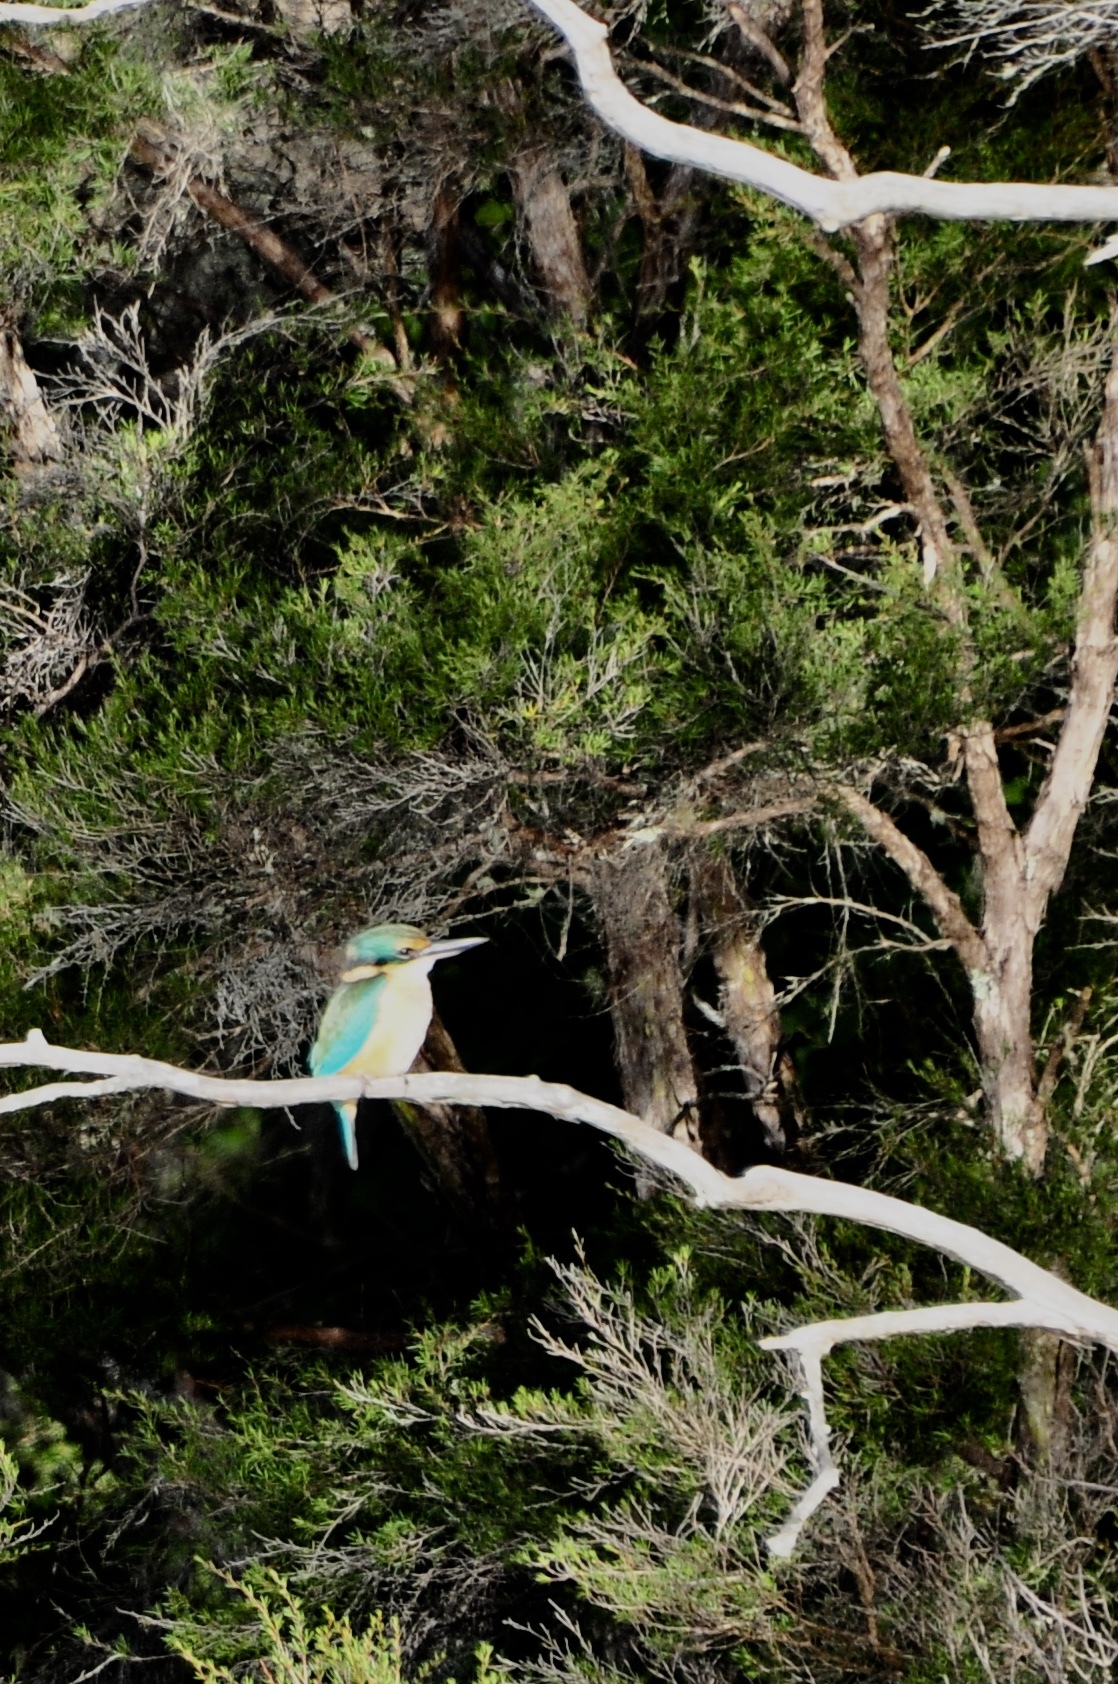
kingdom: Animalia
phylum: Chordata
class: Aves
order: Coraciiformes
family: Alcedinidae
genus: Todiramphus
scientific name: Todiramphus sanctus
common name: Sacred kingfisher
